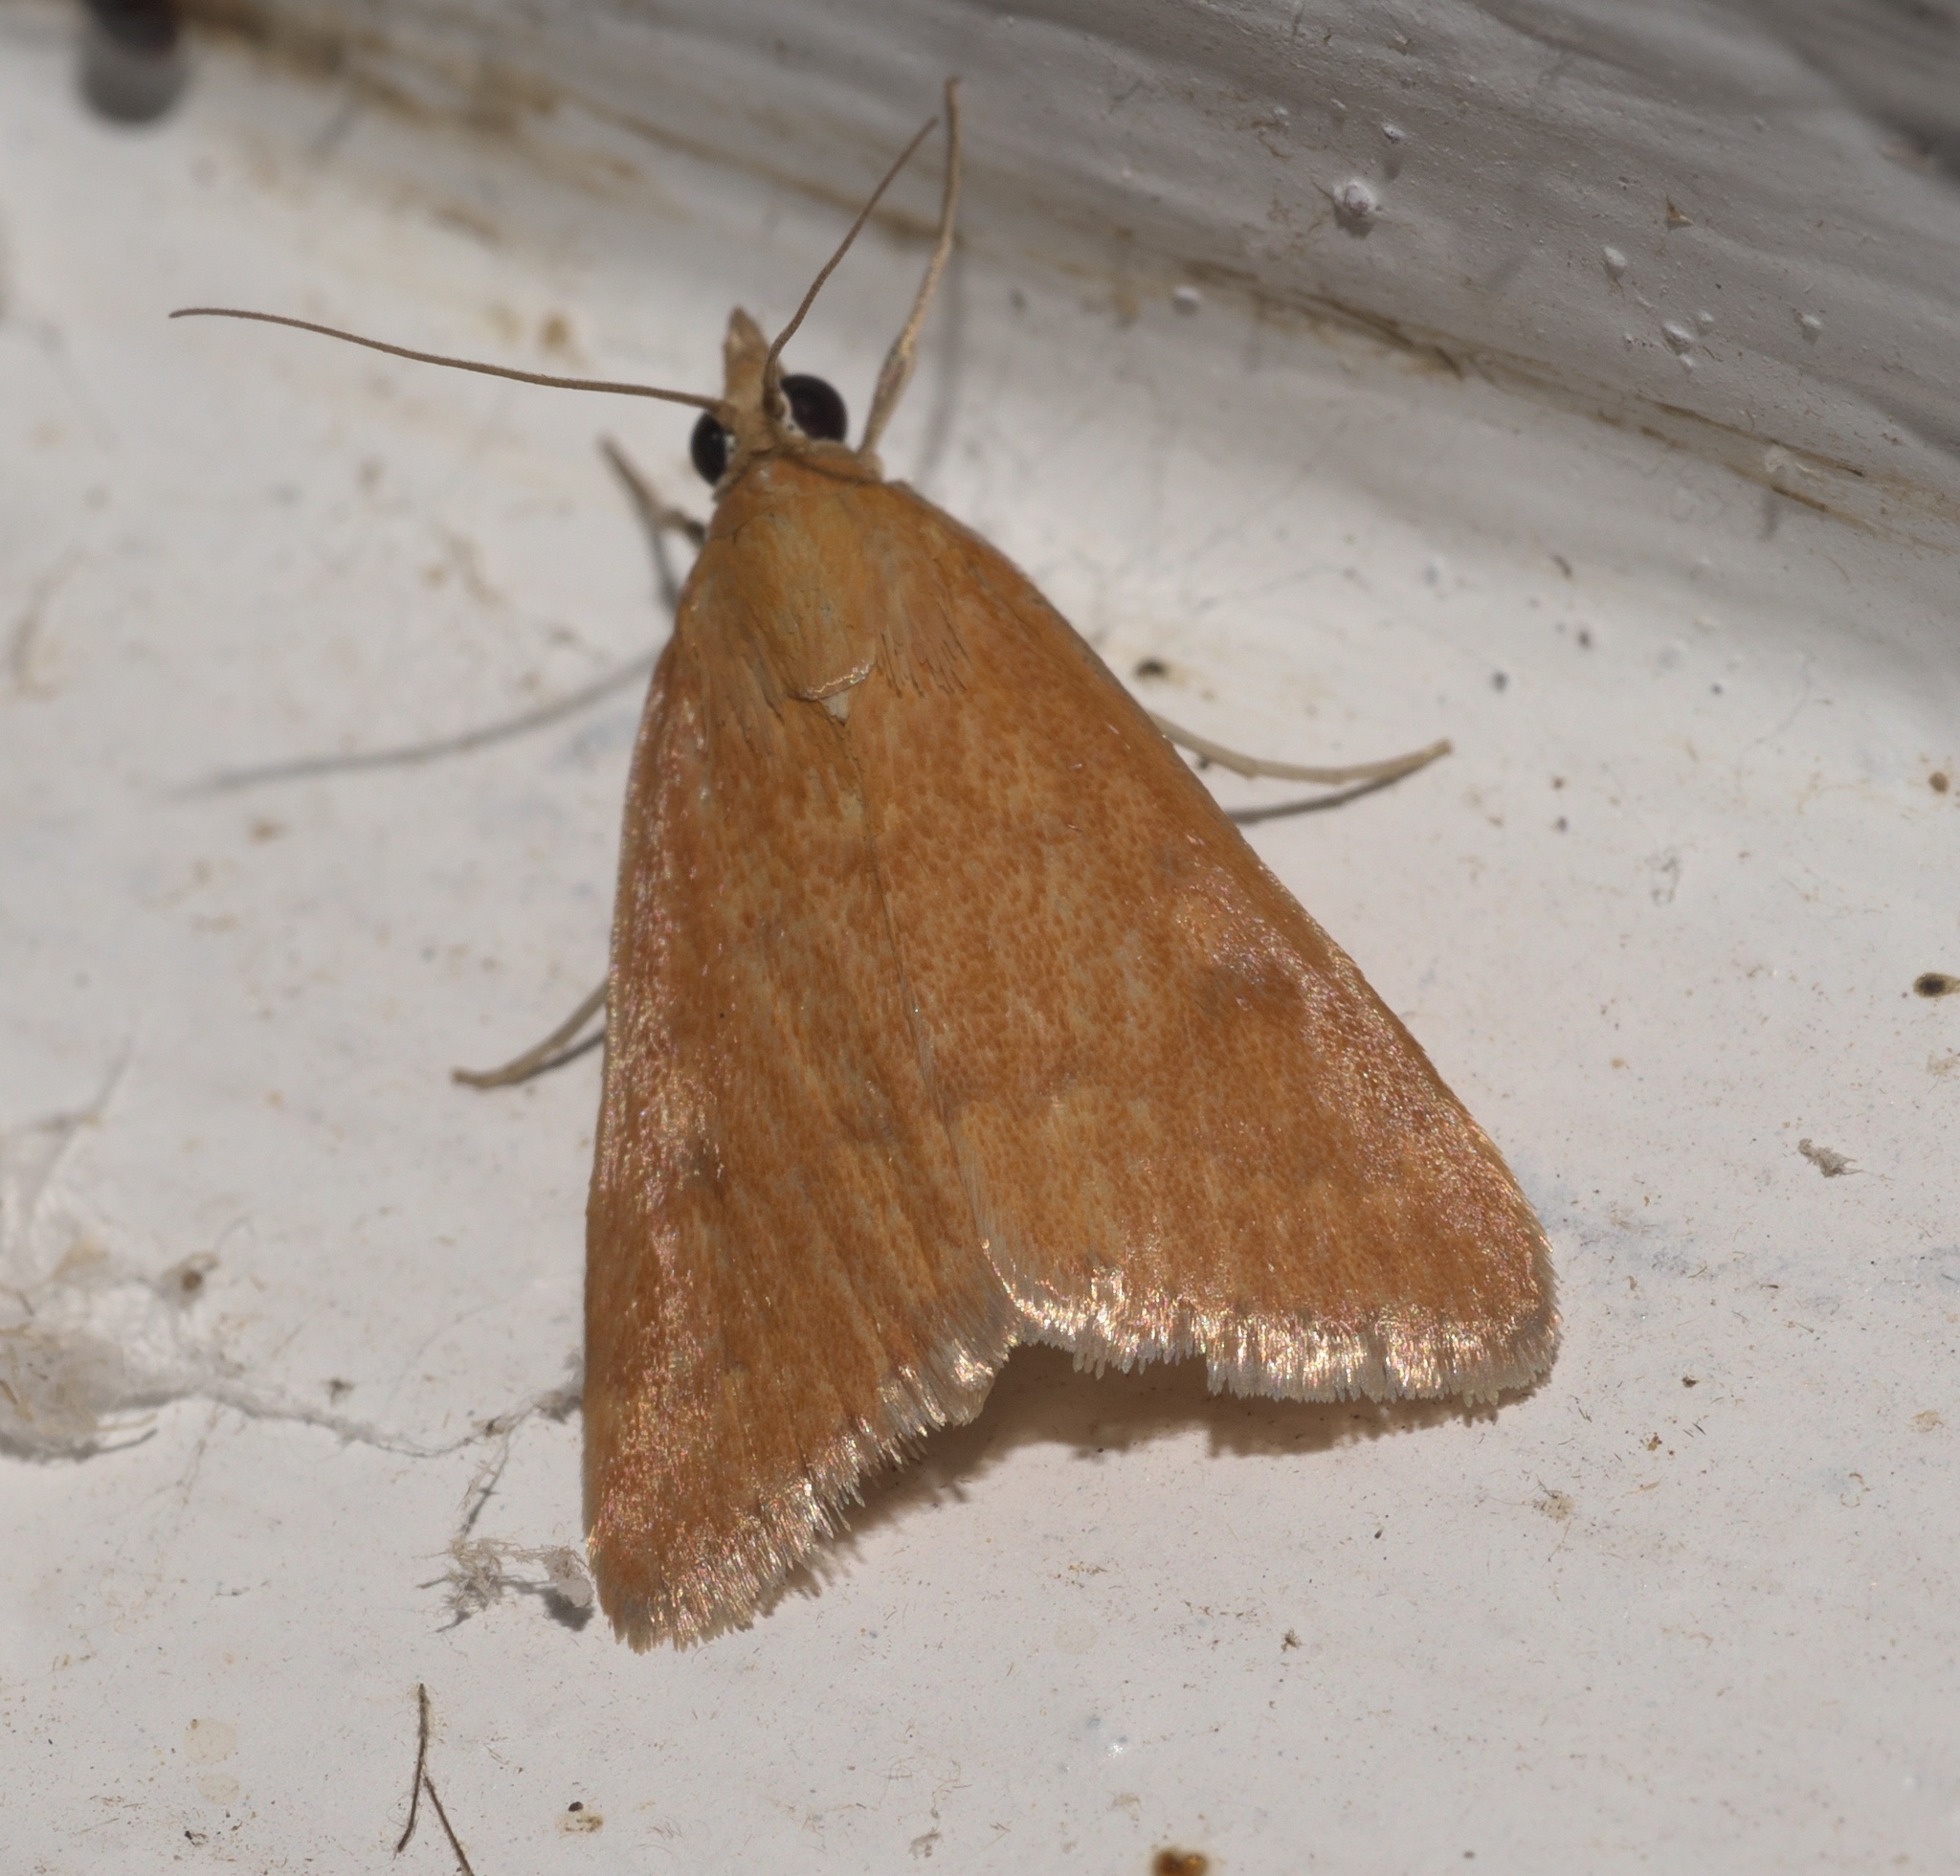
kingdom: Animalia
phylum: Arthropoda
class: Insecta
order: Lepidoptera
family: Crambidae
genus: Achyra
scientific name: Achyra rantalis
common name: Garden webworm
